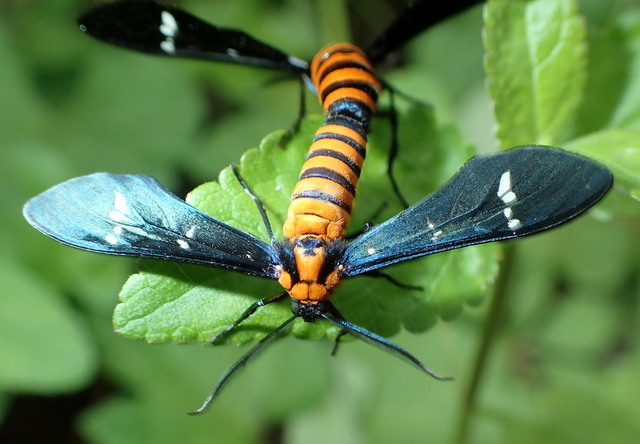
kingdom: Animalia
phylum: Arthropoda
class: Insecta
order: Lepidoptera
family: Erebidae
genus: Syntomeida
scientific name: Syntomeida ipomoeae
